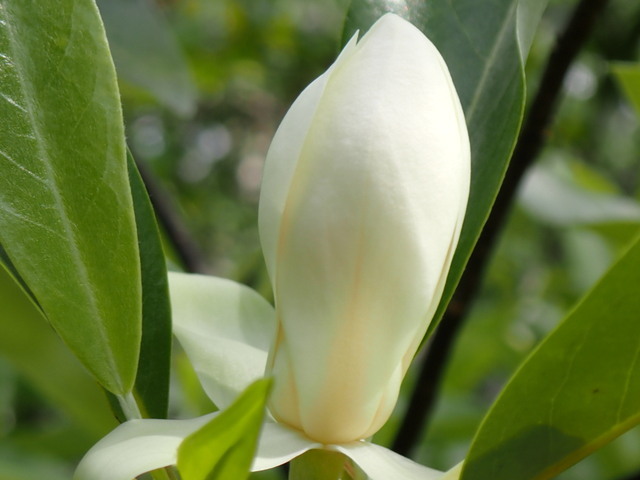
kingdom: Plantae
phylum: Tracheophyta
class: Magnoliopsida
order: Magnoliales
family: Magnoliaceae
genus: Magnolia
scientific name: Magnolia virginiana
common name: Swamp bay
